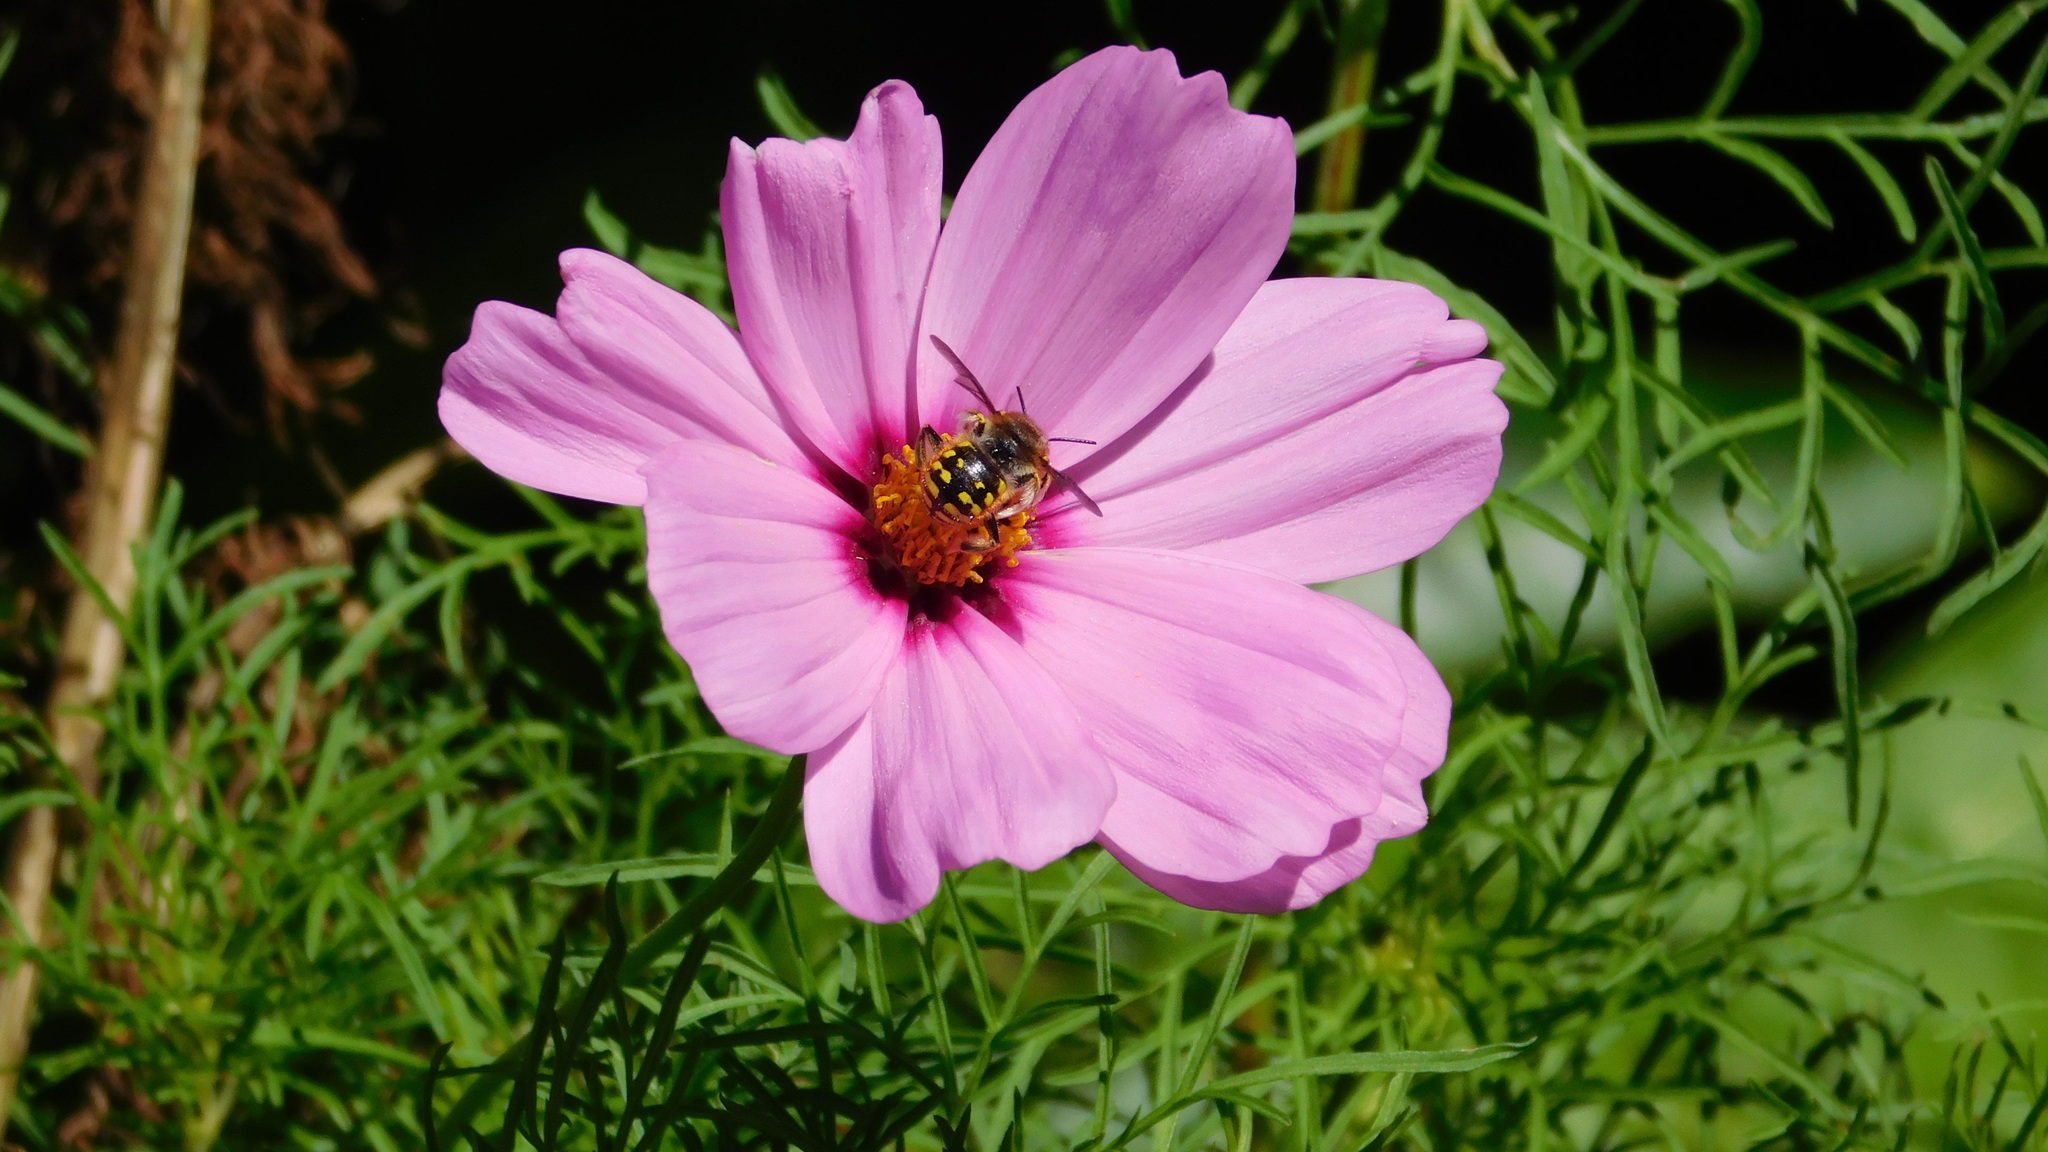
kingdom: Animalia
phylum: Arthropoda
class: Insecta
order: Hymenoptera
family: Megachilidae
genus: Anthidium
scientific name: Anthidium manicatum
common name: Wool carder bee
